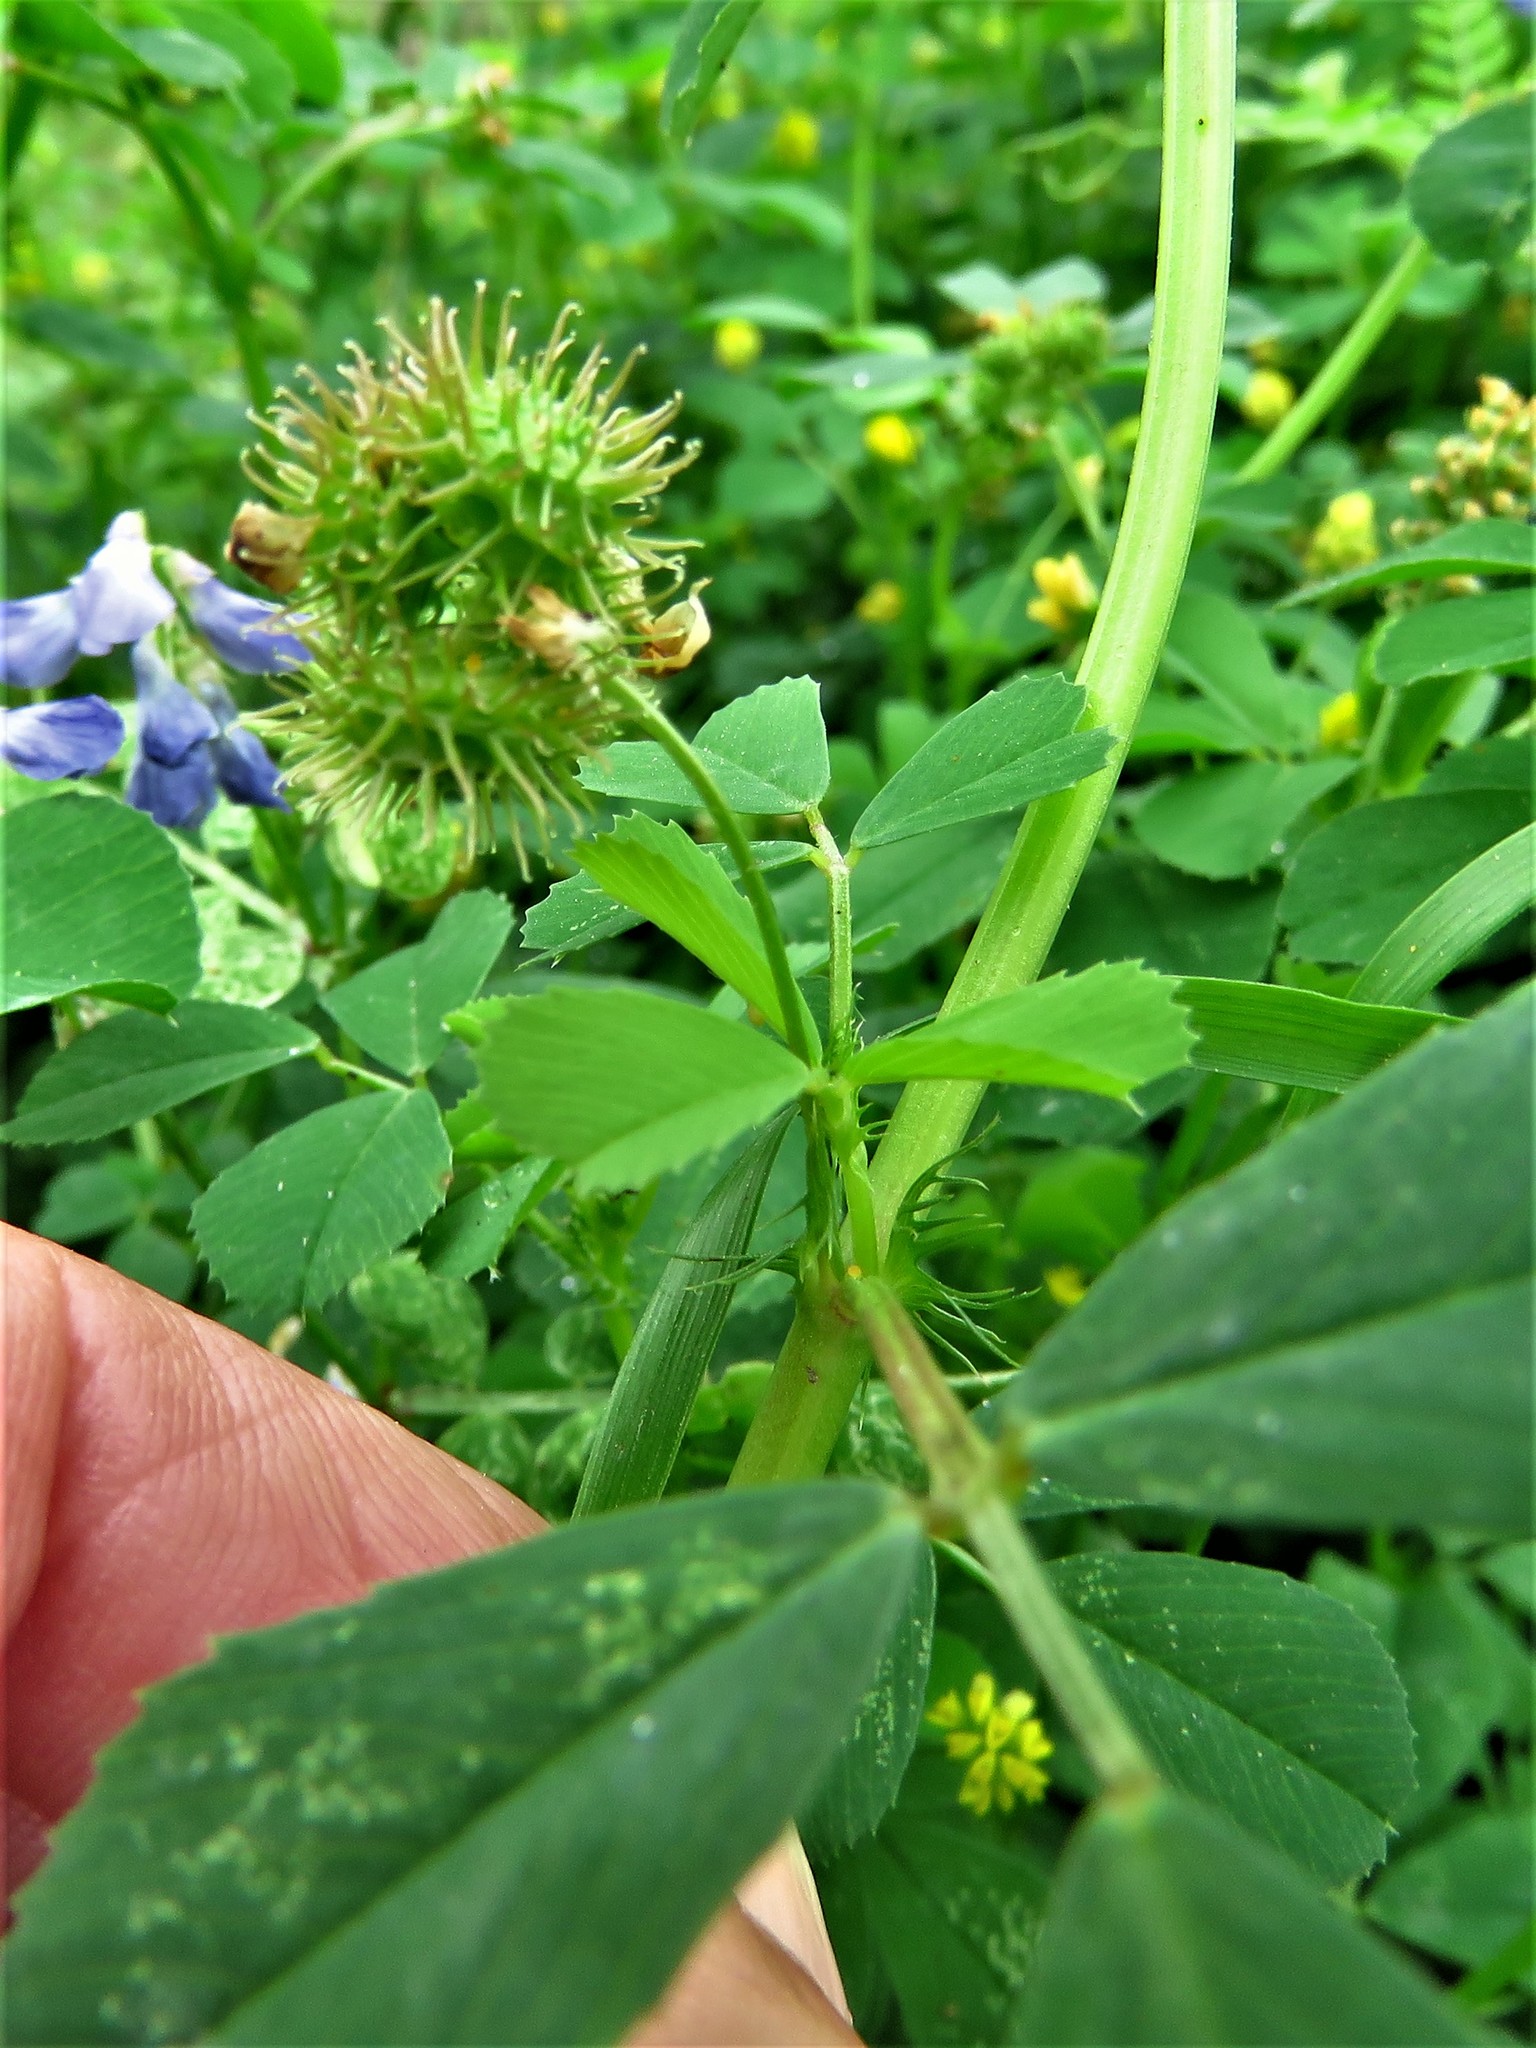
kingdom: Plantae
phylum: Tracheophyta
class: Magnoliopsida
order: Fabales
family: Fabaceae
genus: Medicago
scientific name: Medicago polymorpha
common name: Burclover
